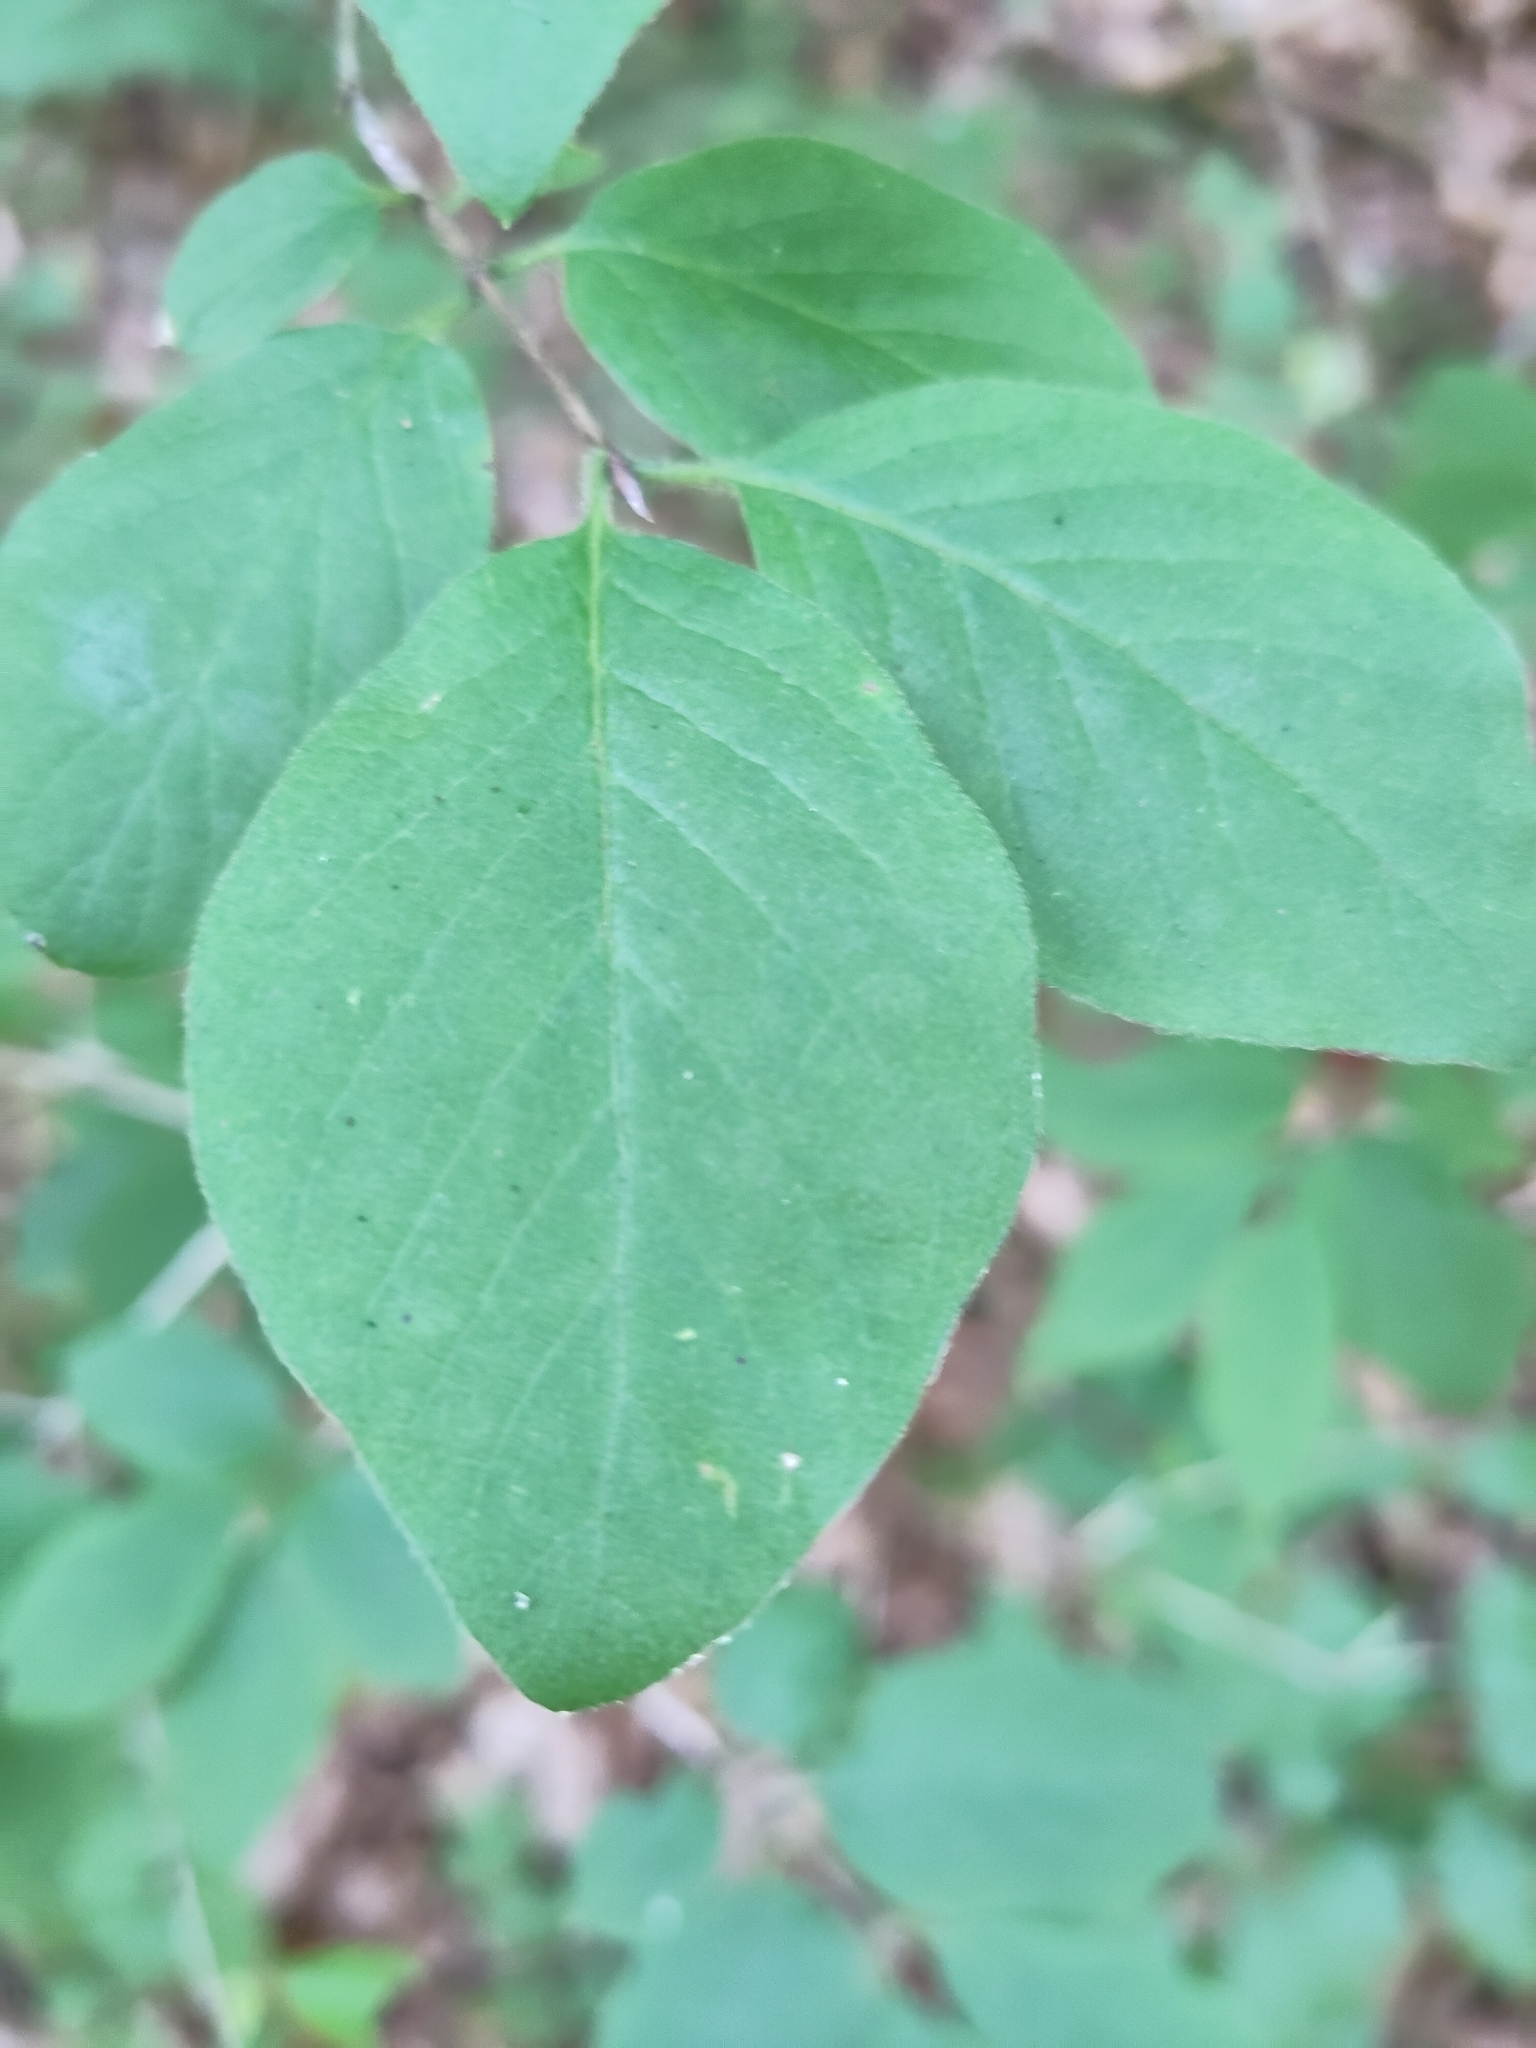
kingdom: Plantae
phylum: Tracheophyta
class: Magnoliopsida
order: Dipsacales
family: Caprifoliaceae
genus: Lonicera
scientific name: Lonicera xylosteum
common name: Fly honeysuckle
